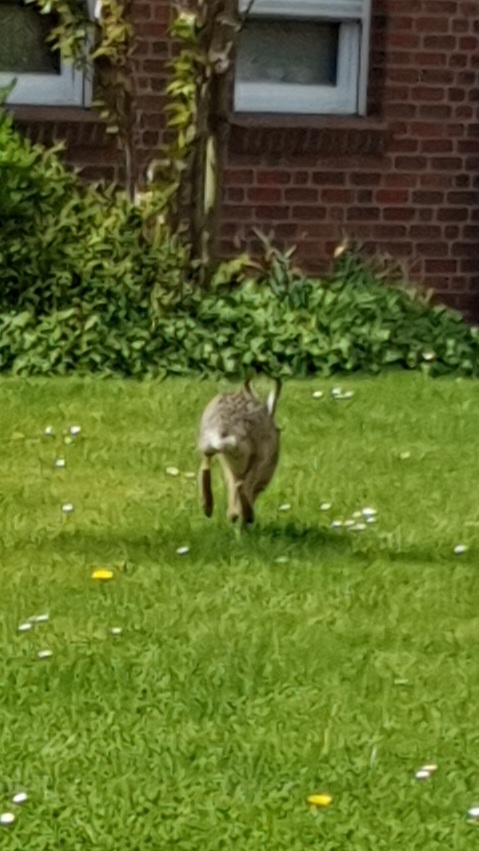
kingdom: Animalia
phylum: Chordata
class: Mammalia
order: Lagomorpha
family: Leporidae
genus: Lepus
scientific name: Lepus europaeus
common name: European hare
